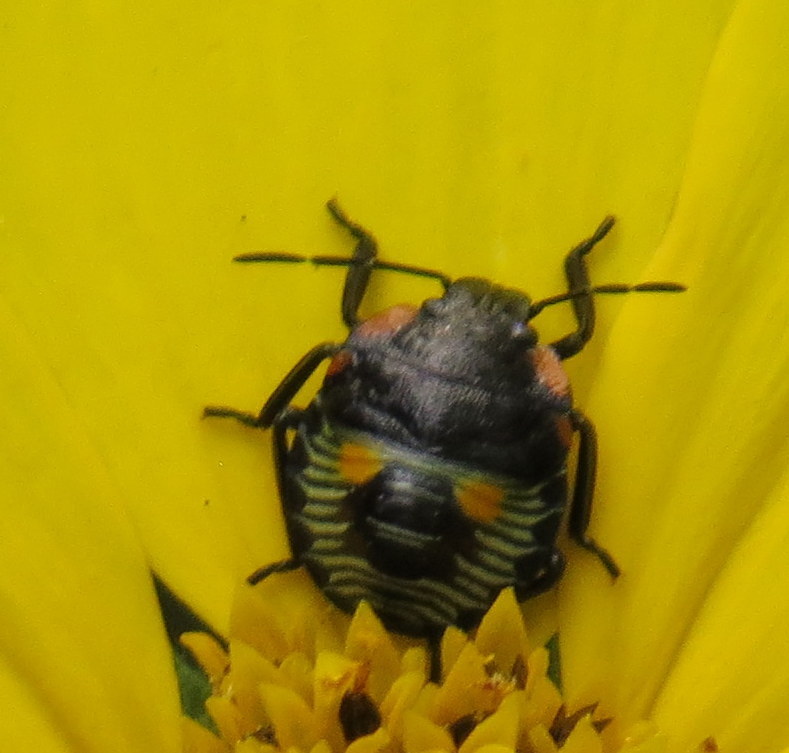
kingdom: Animalia
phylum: Arthropoda
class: Insecta
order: Hemiptera
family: Pentatomidae
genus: Chinavia
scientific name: Chinavia hilaris
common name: Green stink bug
